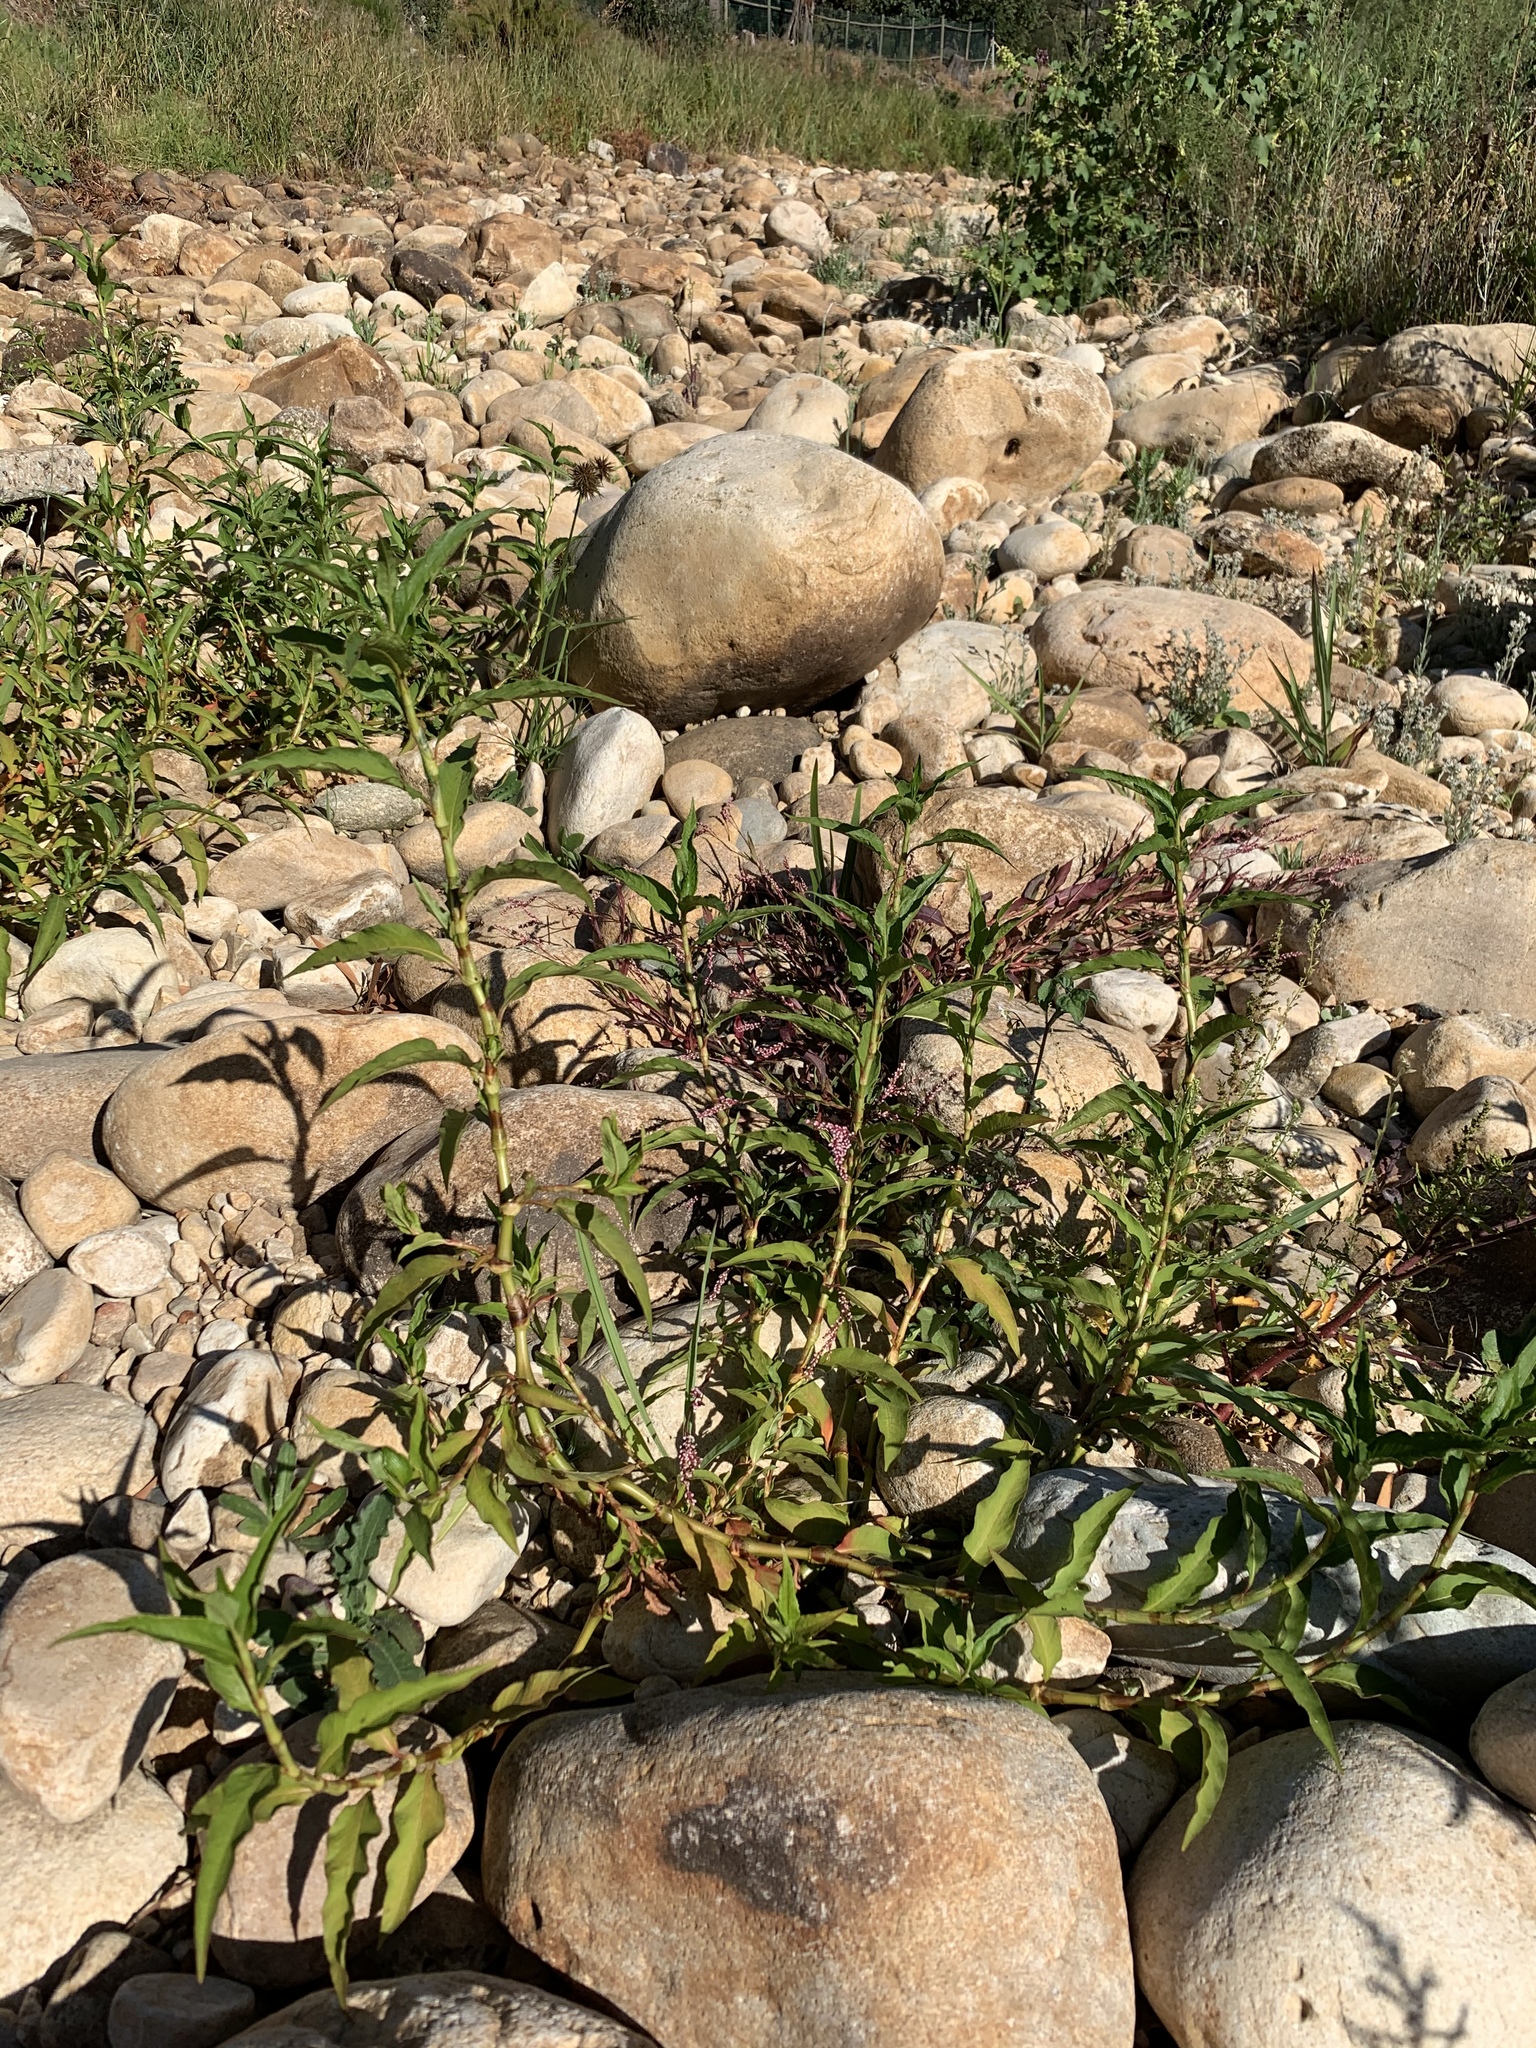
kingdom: Plantae
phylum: Tracheophyta
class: Magnoliopsida
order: Caryophyllales
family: Polygonaceae
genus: Persicaria
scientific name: Persicaria madagascariensis
